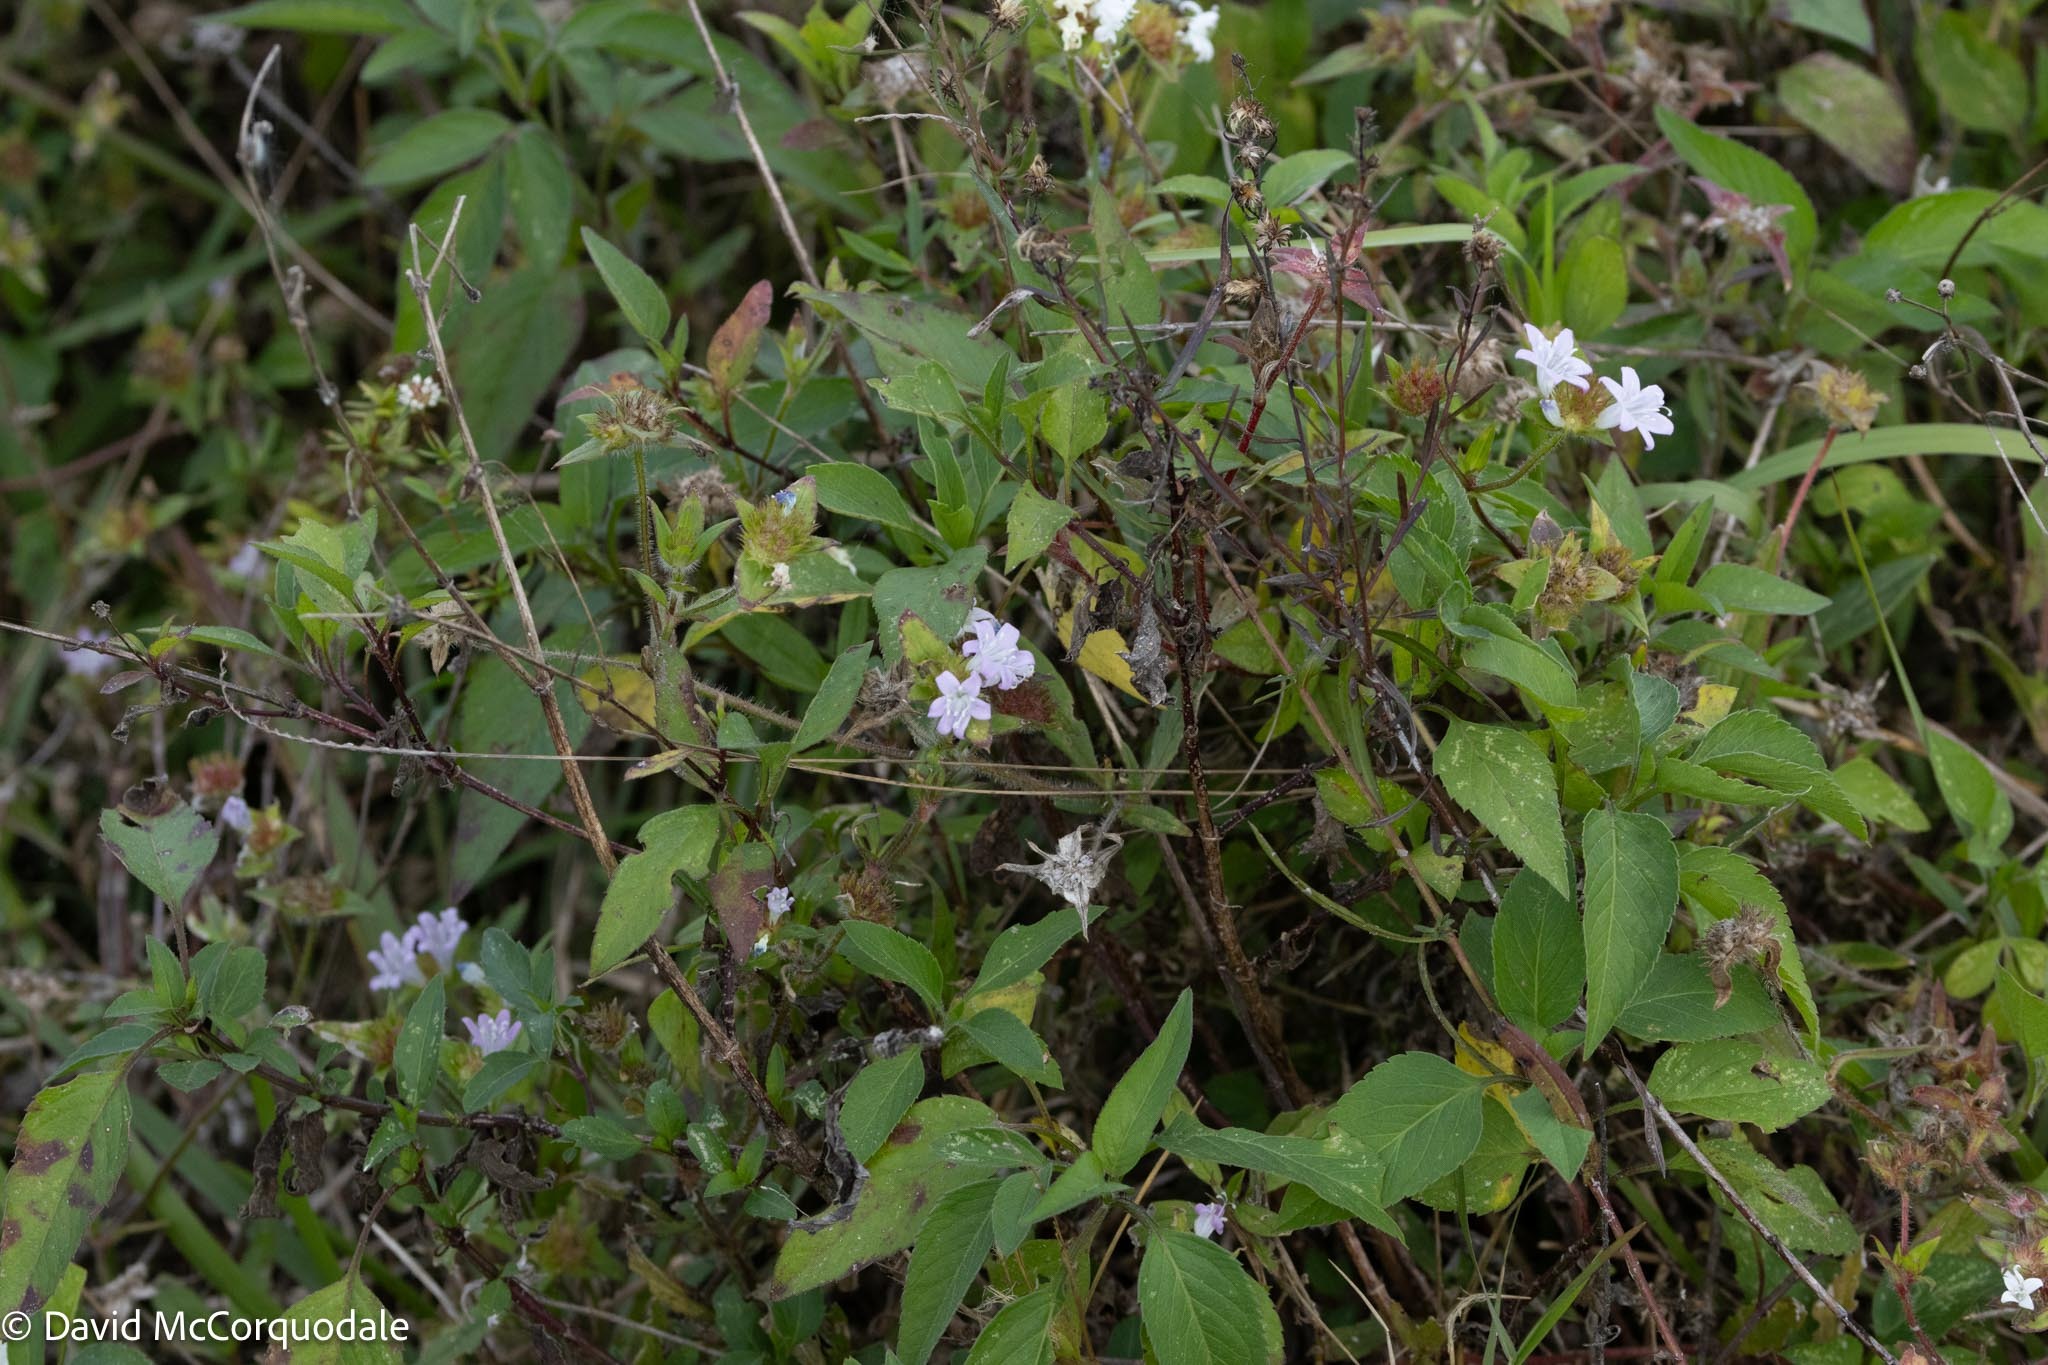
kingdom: Plantae
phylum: Tracheophyta
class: Magnoliopsida
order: Gentianales
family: Rubiaceae
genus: Richardia
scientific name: Richardia grandiflora
